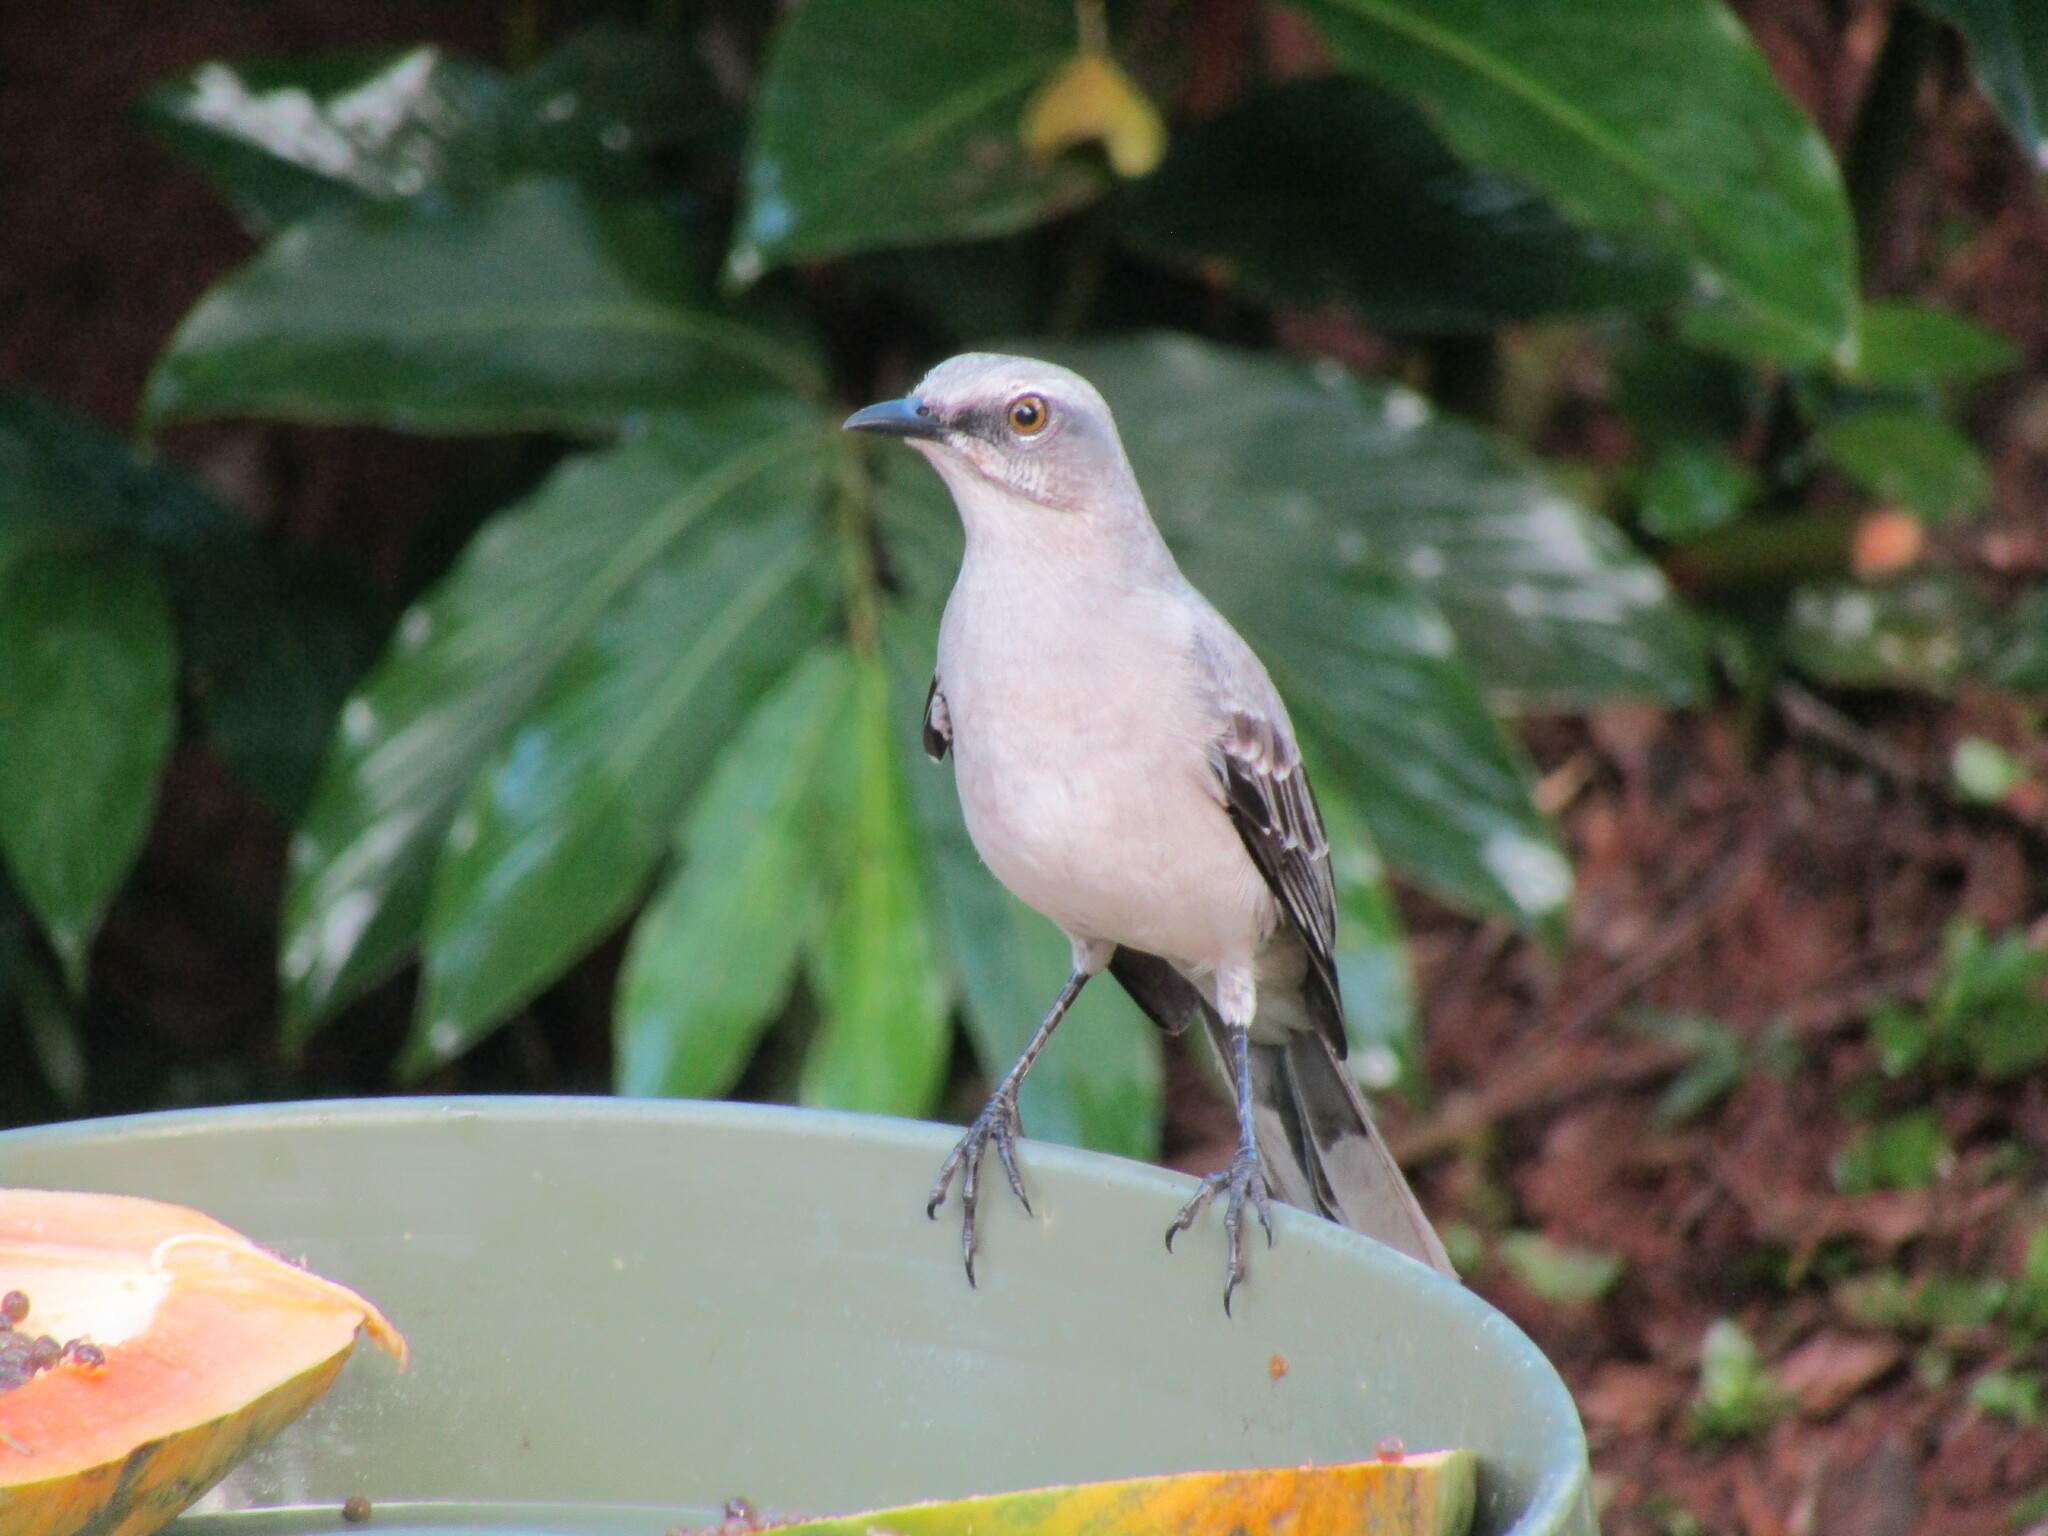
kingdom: Animalia
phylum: Chordata
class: Aves
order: Passeriformes
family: Mimidae
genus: Mimus
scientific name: Mimus gilvus
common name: Tropical mockingbird
